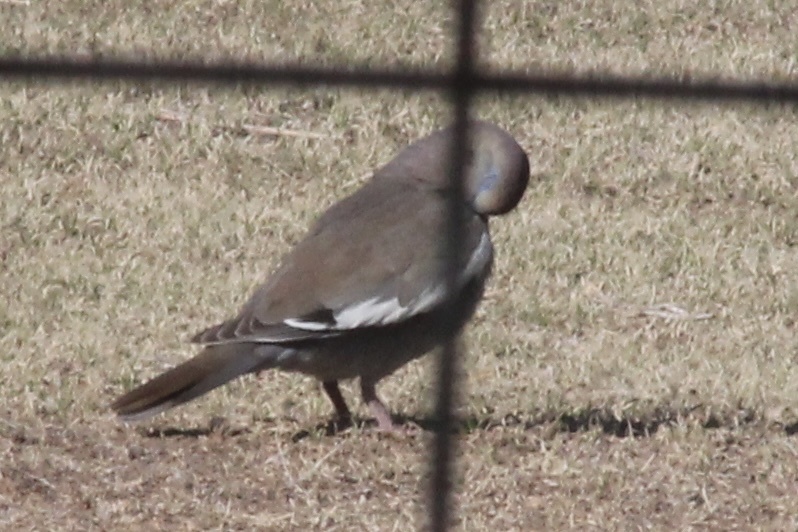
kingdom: Animalia
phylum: Chordata
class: Aves
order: Columbiformes
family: Columbidae
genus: Zenaida
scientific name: Zenaida asiatica
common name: White-winged dove
